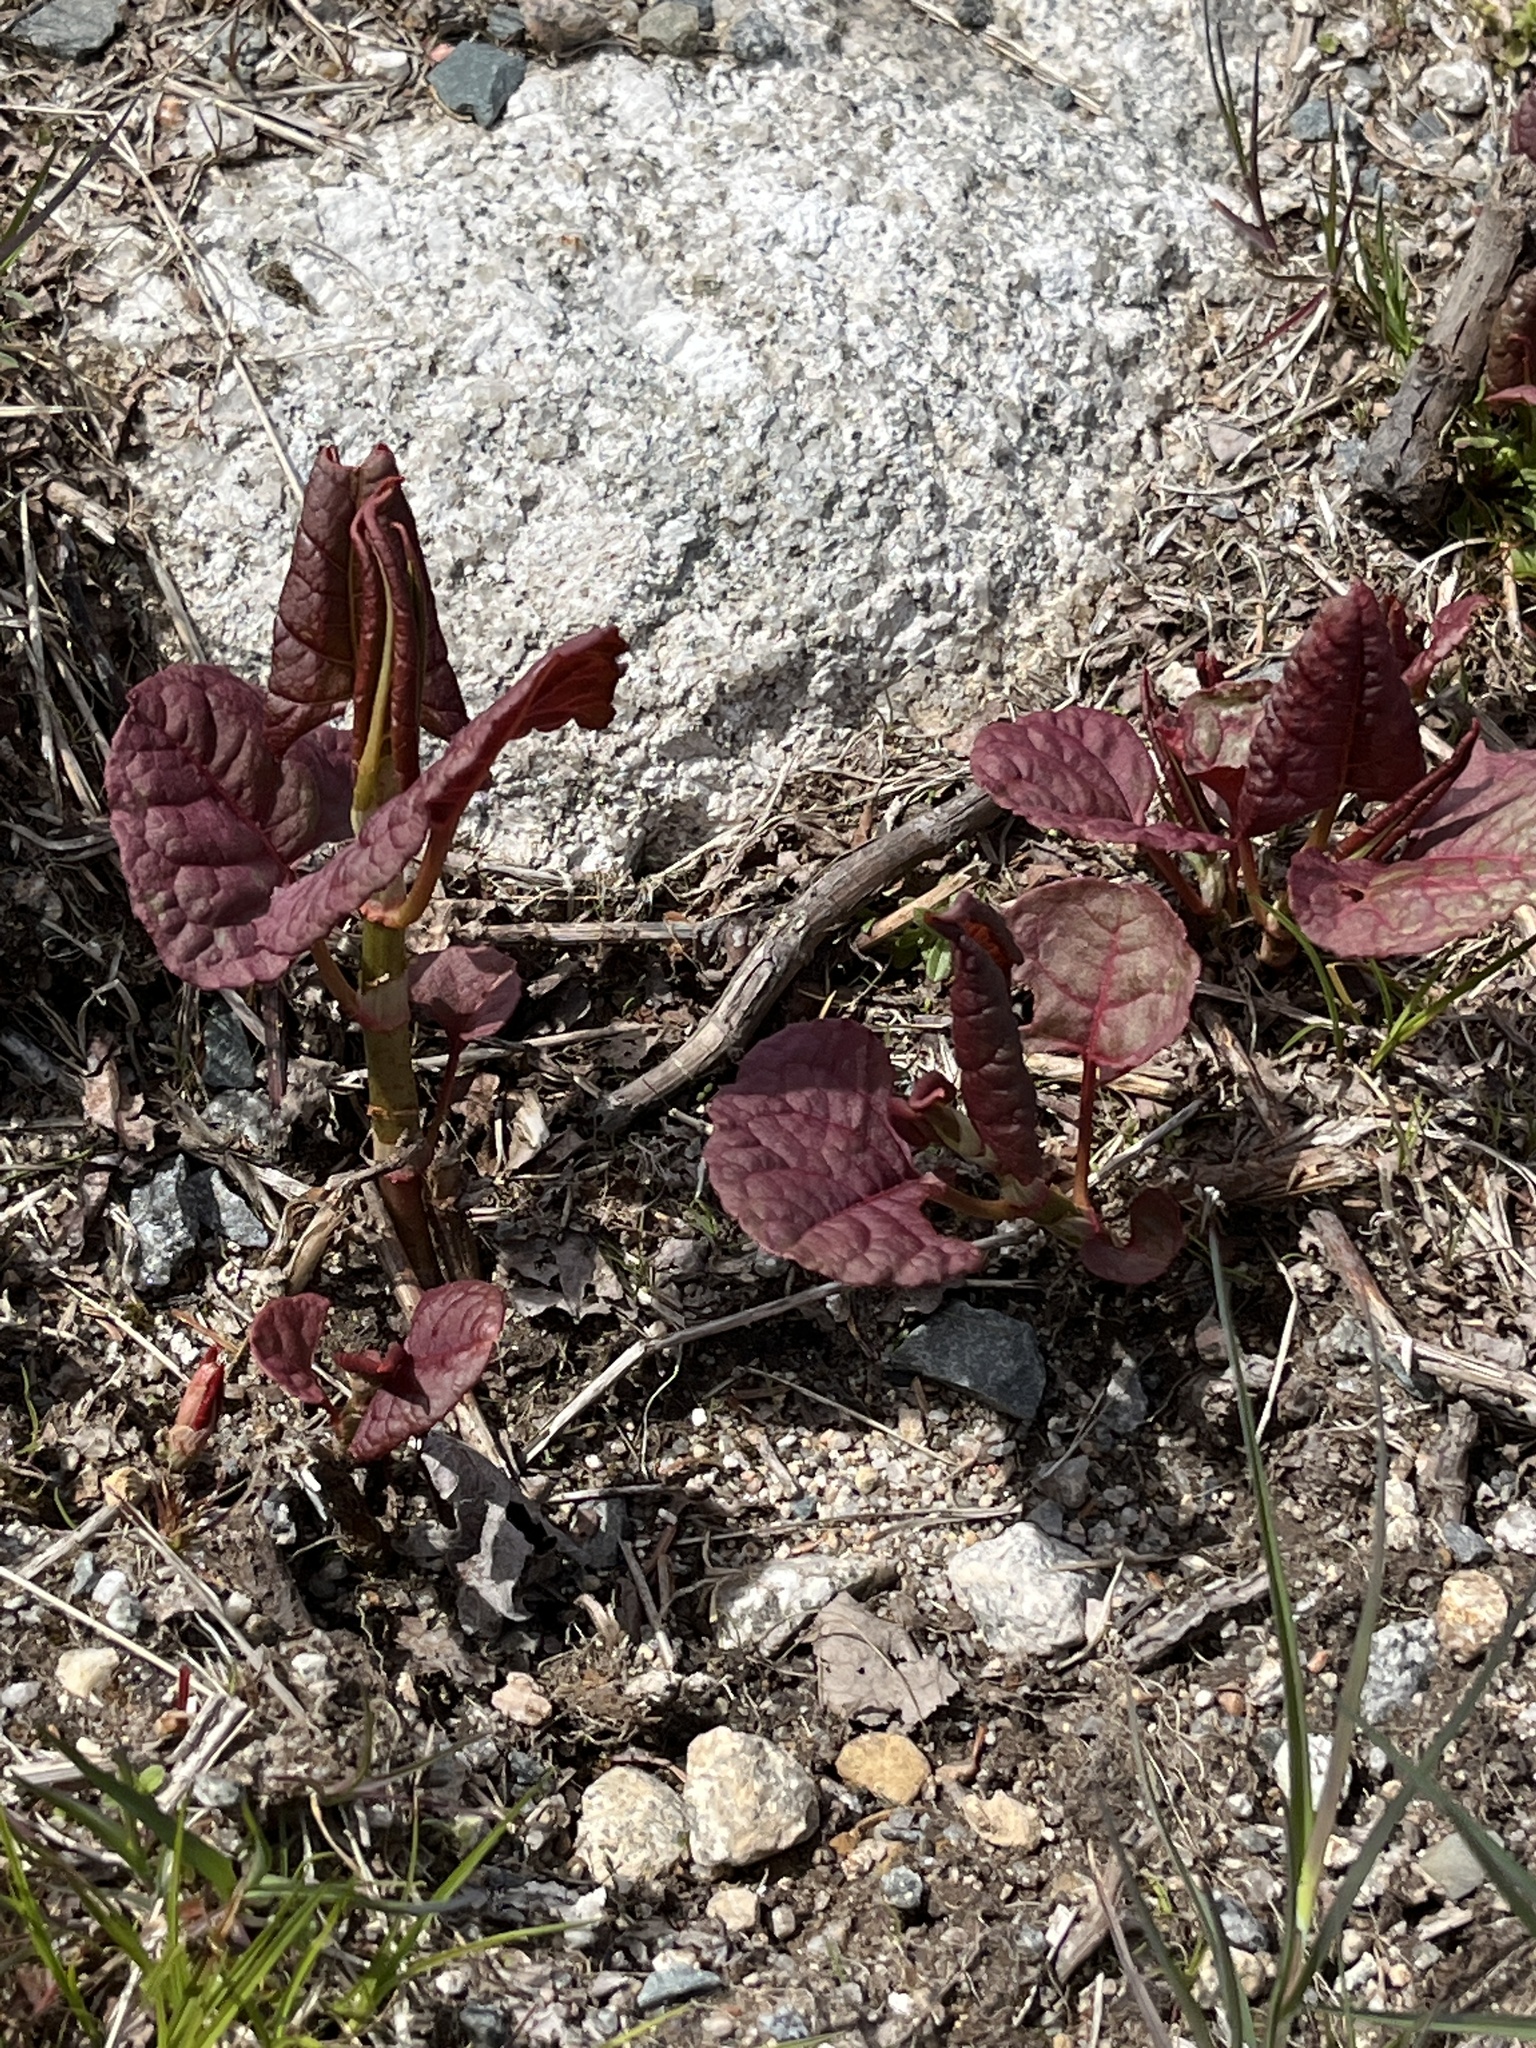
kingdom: Plantae
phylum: Tracheophyta
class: Magnoliopsida
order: Caryophyllales
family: Polygonaceae
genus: Reynoutria
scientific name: Reynoutria japonica
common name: Japanese knotweed
